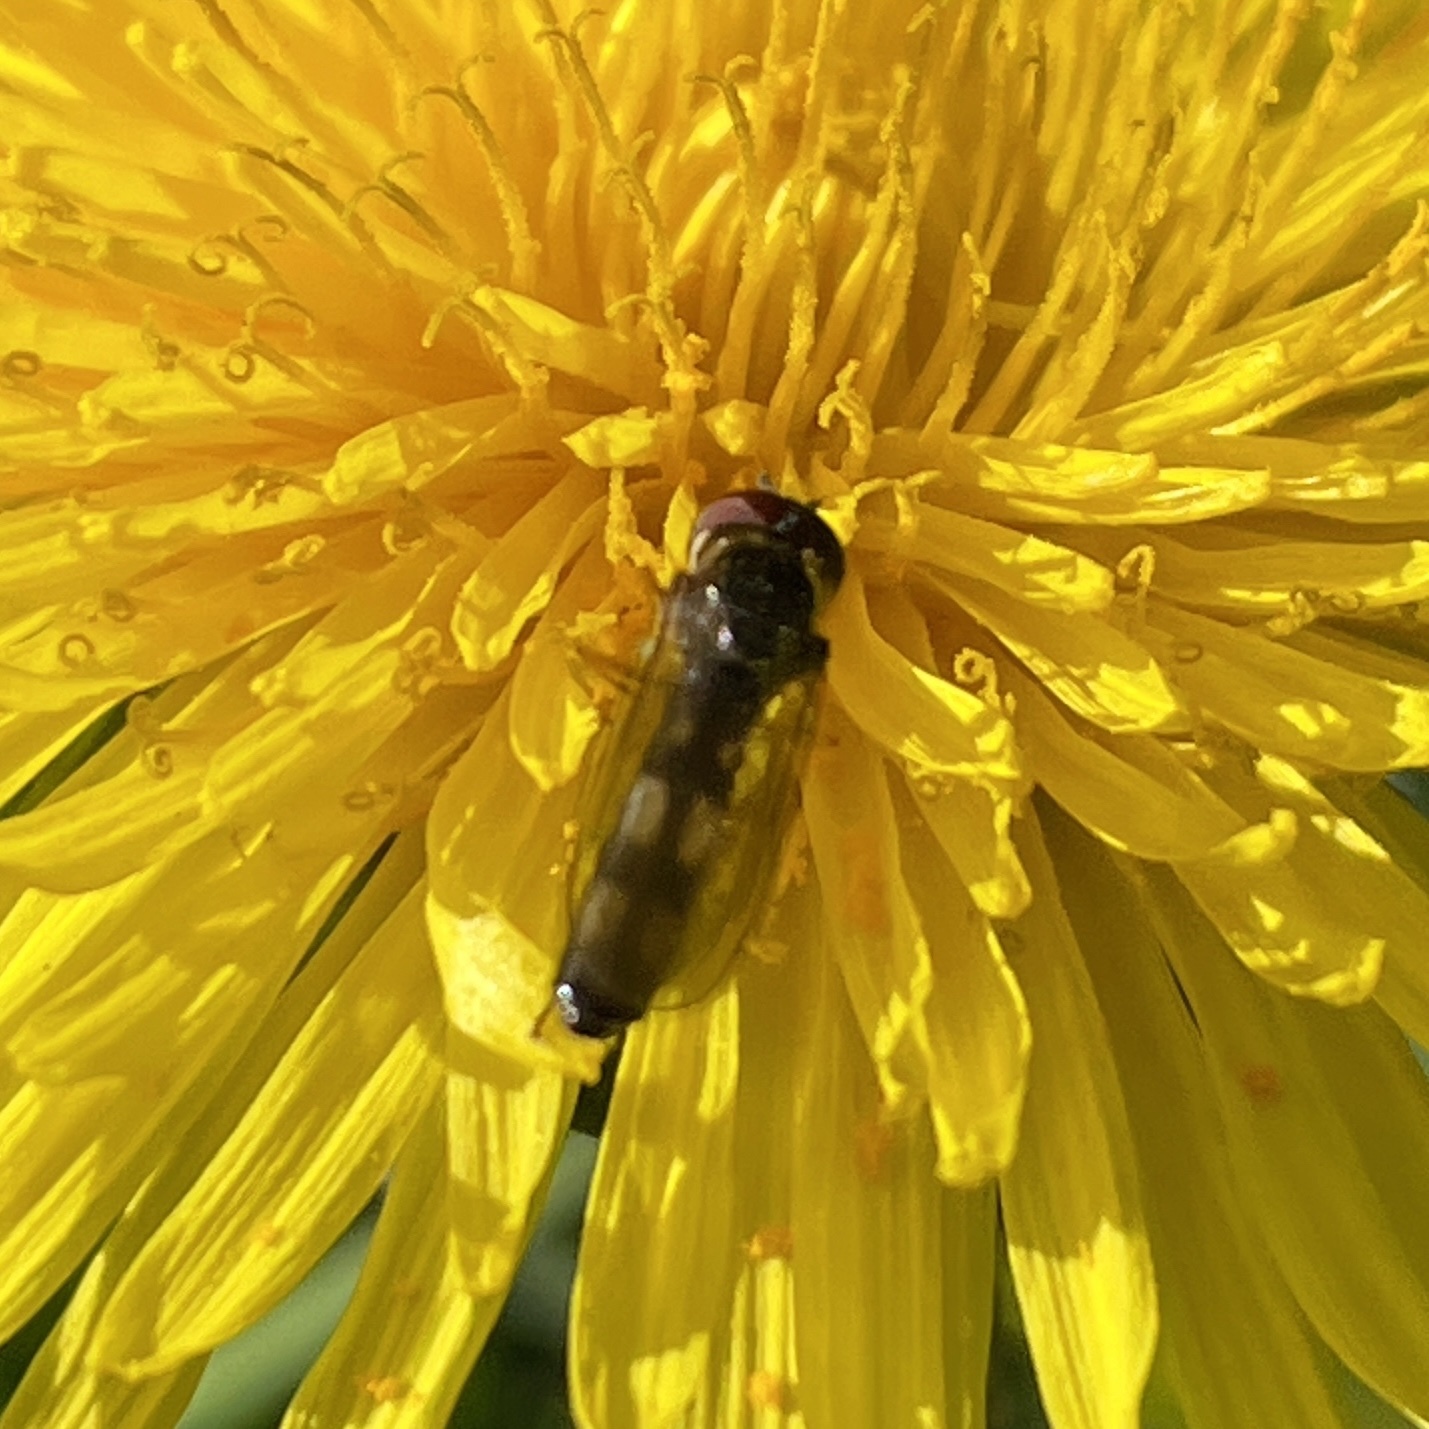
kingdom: Animalia
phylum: Arthropoda
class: Insecta
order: Diptera
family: Syrphidae
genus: Melanostoma
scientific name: Melanostoma mellina
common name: Hover fly
